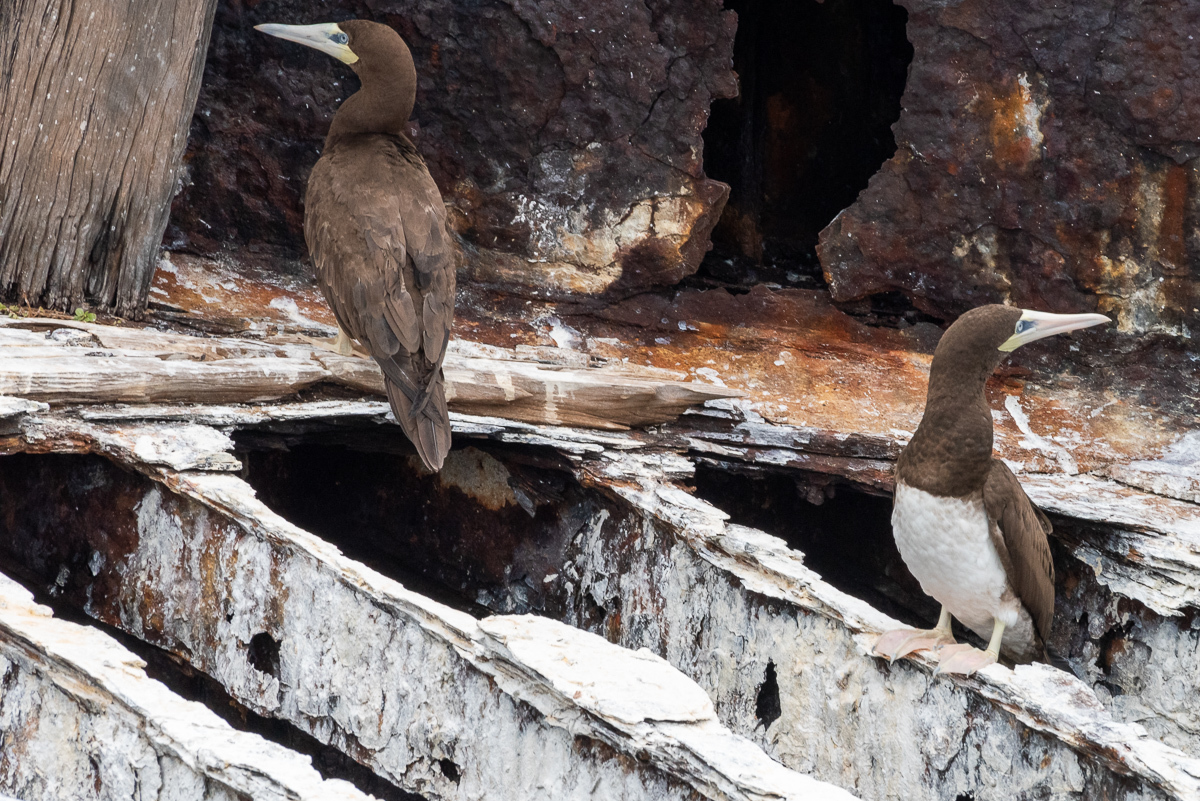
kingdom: Animalia
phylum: Chordata
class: Aves
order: Suliformes
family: Sulidae
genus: Sula
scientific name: Sula leucogaster
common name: Brown booby
